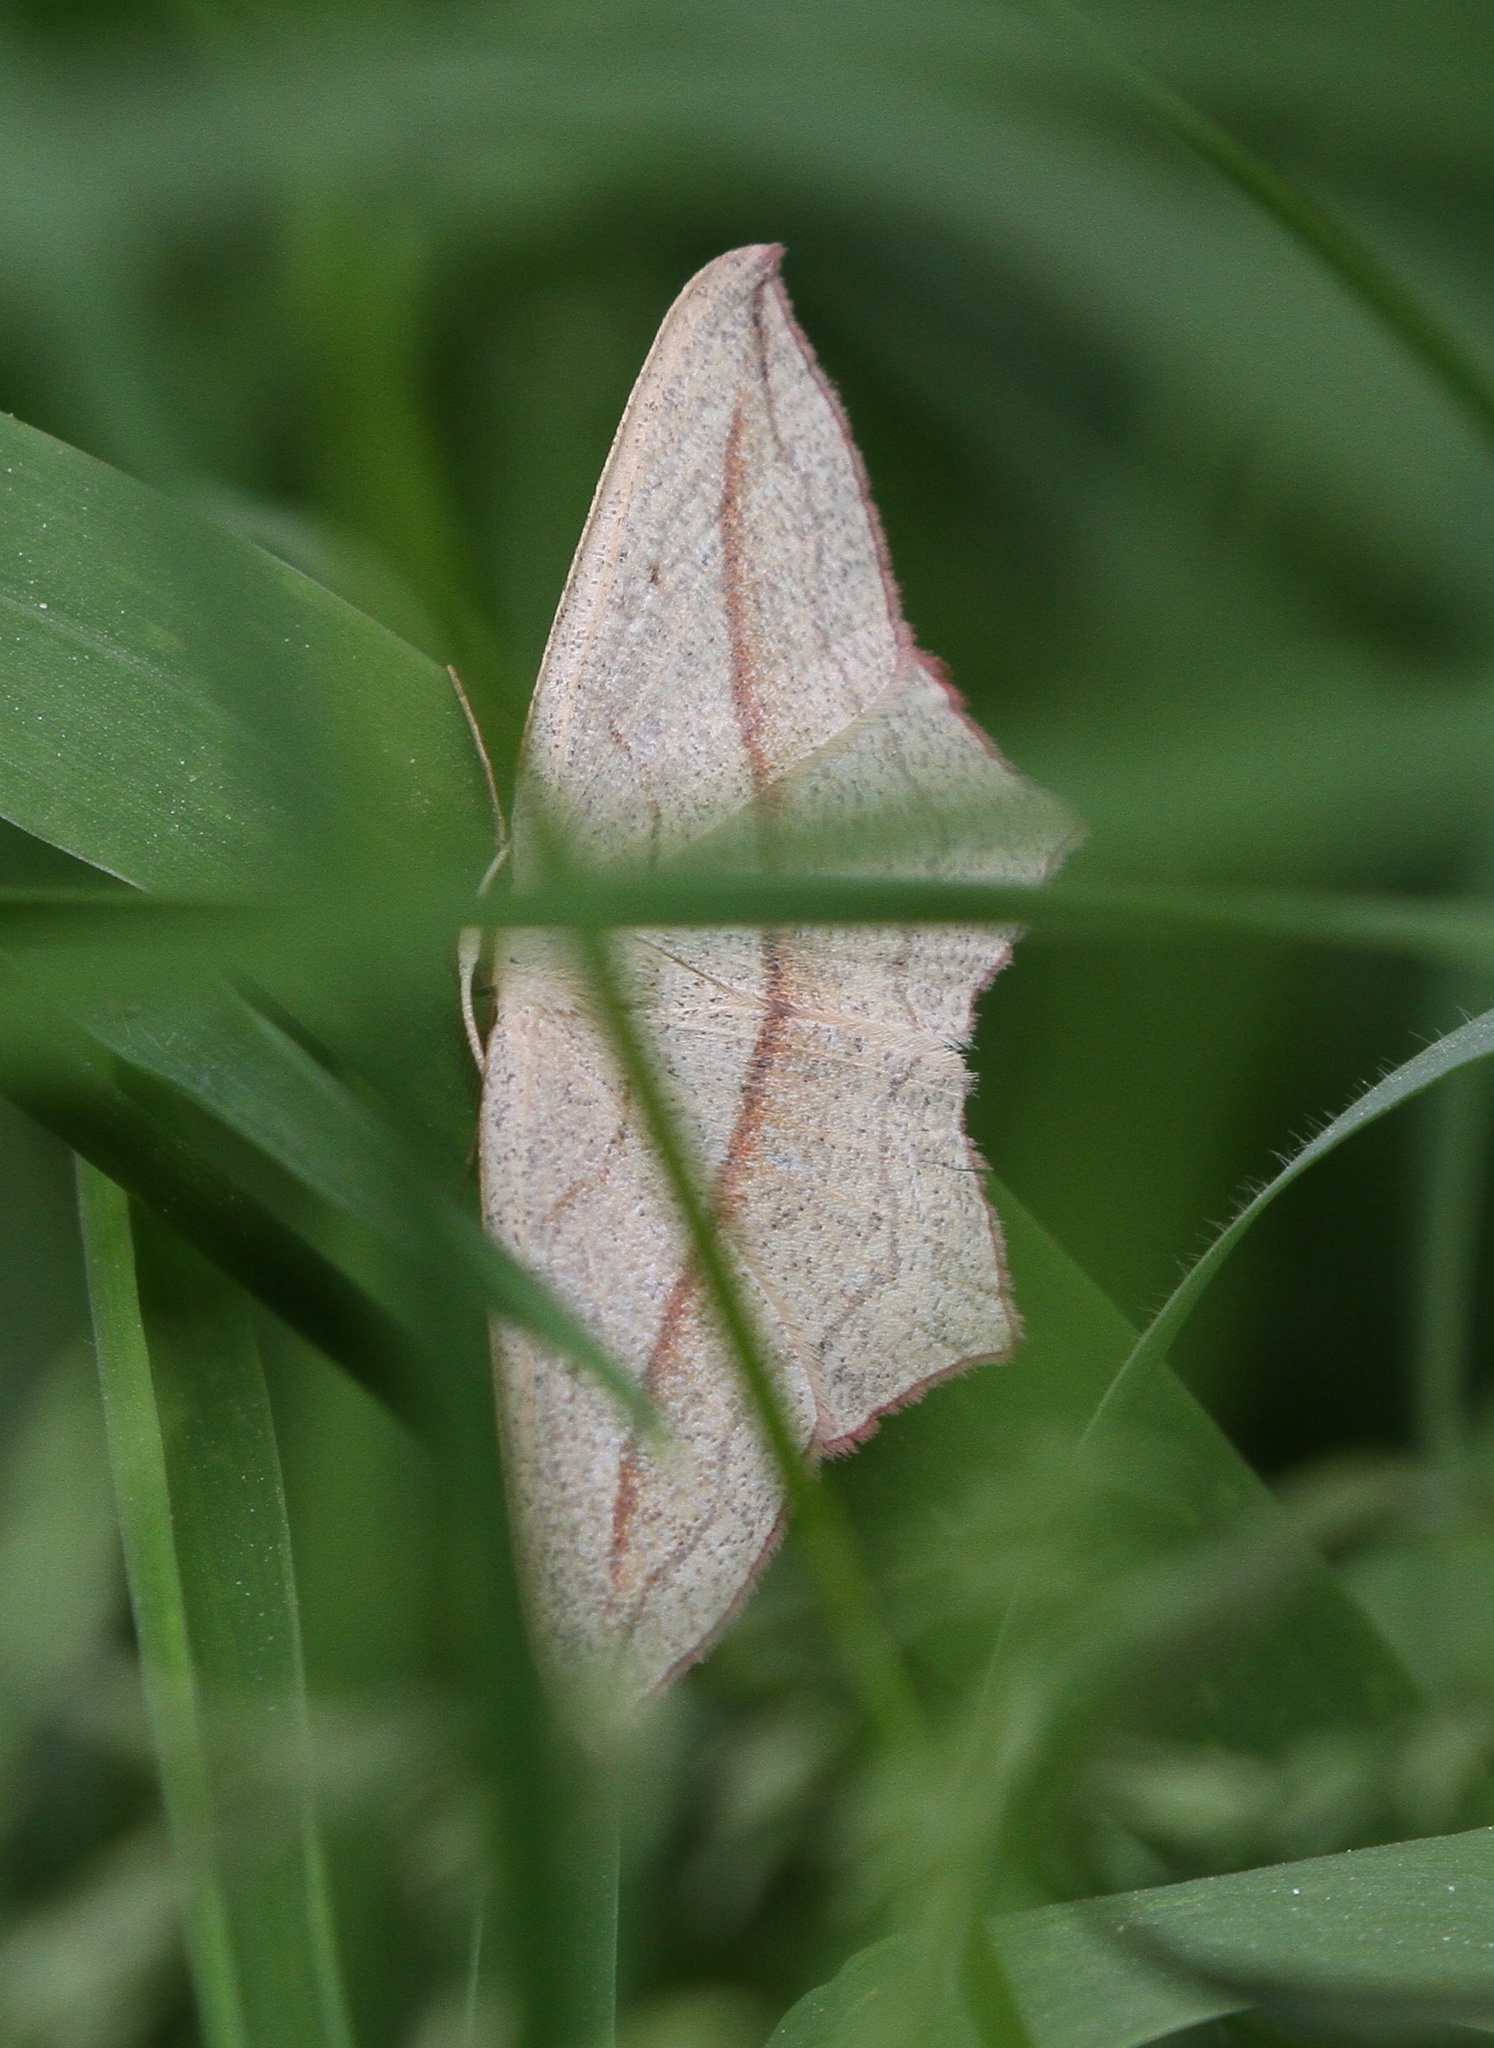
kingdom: Animalia
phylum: Arthropoda
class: Insecta
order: Lepidoptera
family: Geometridae
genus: Timandra
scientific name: Timandra comae
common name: Blood-vein
